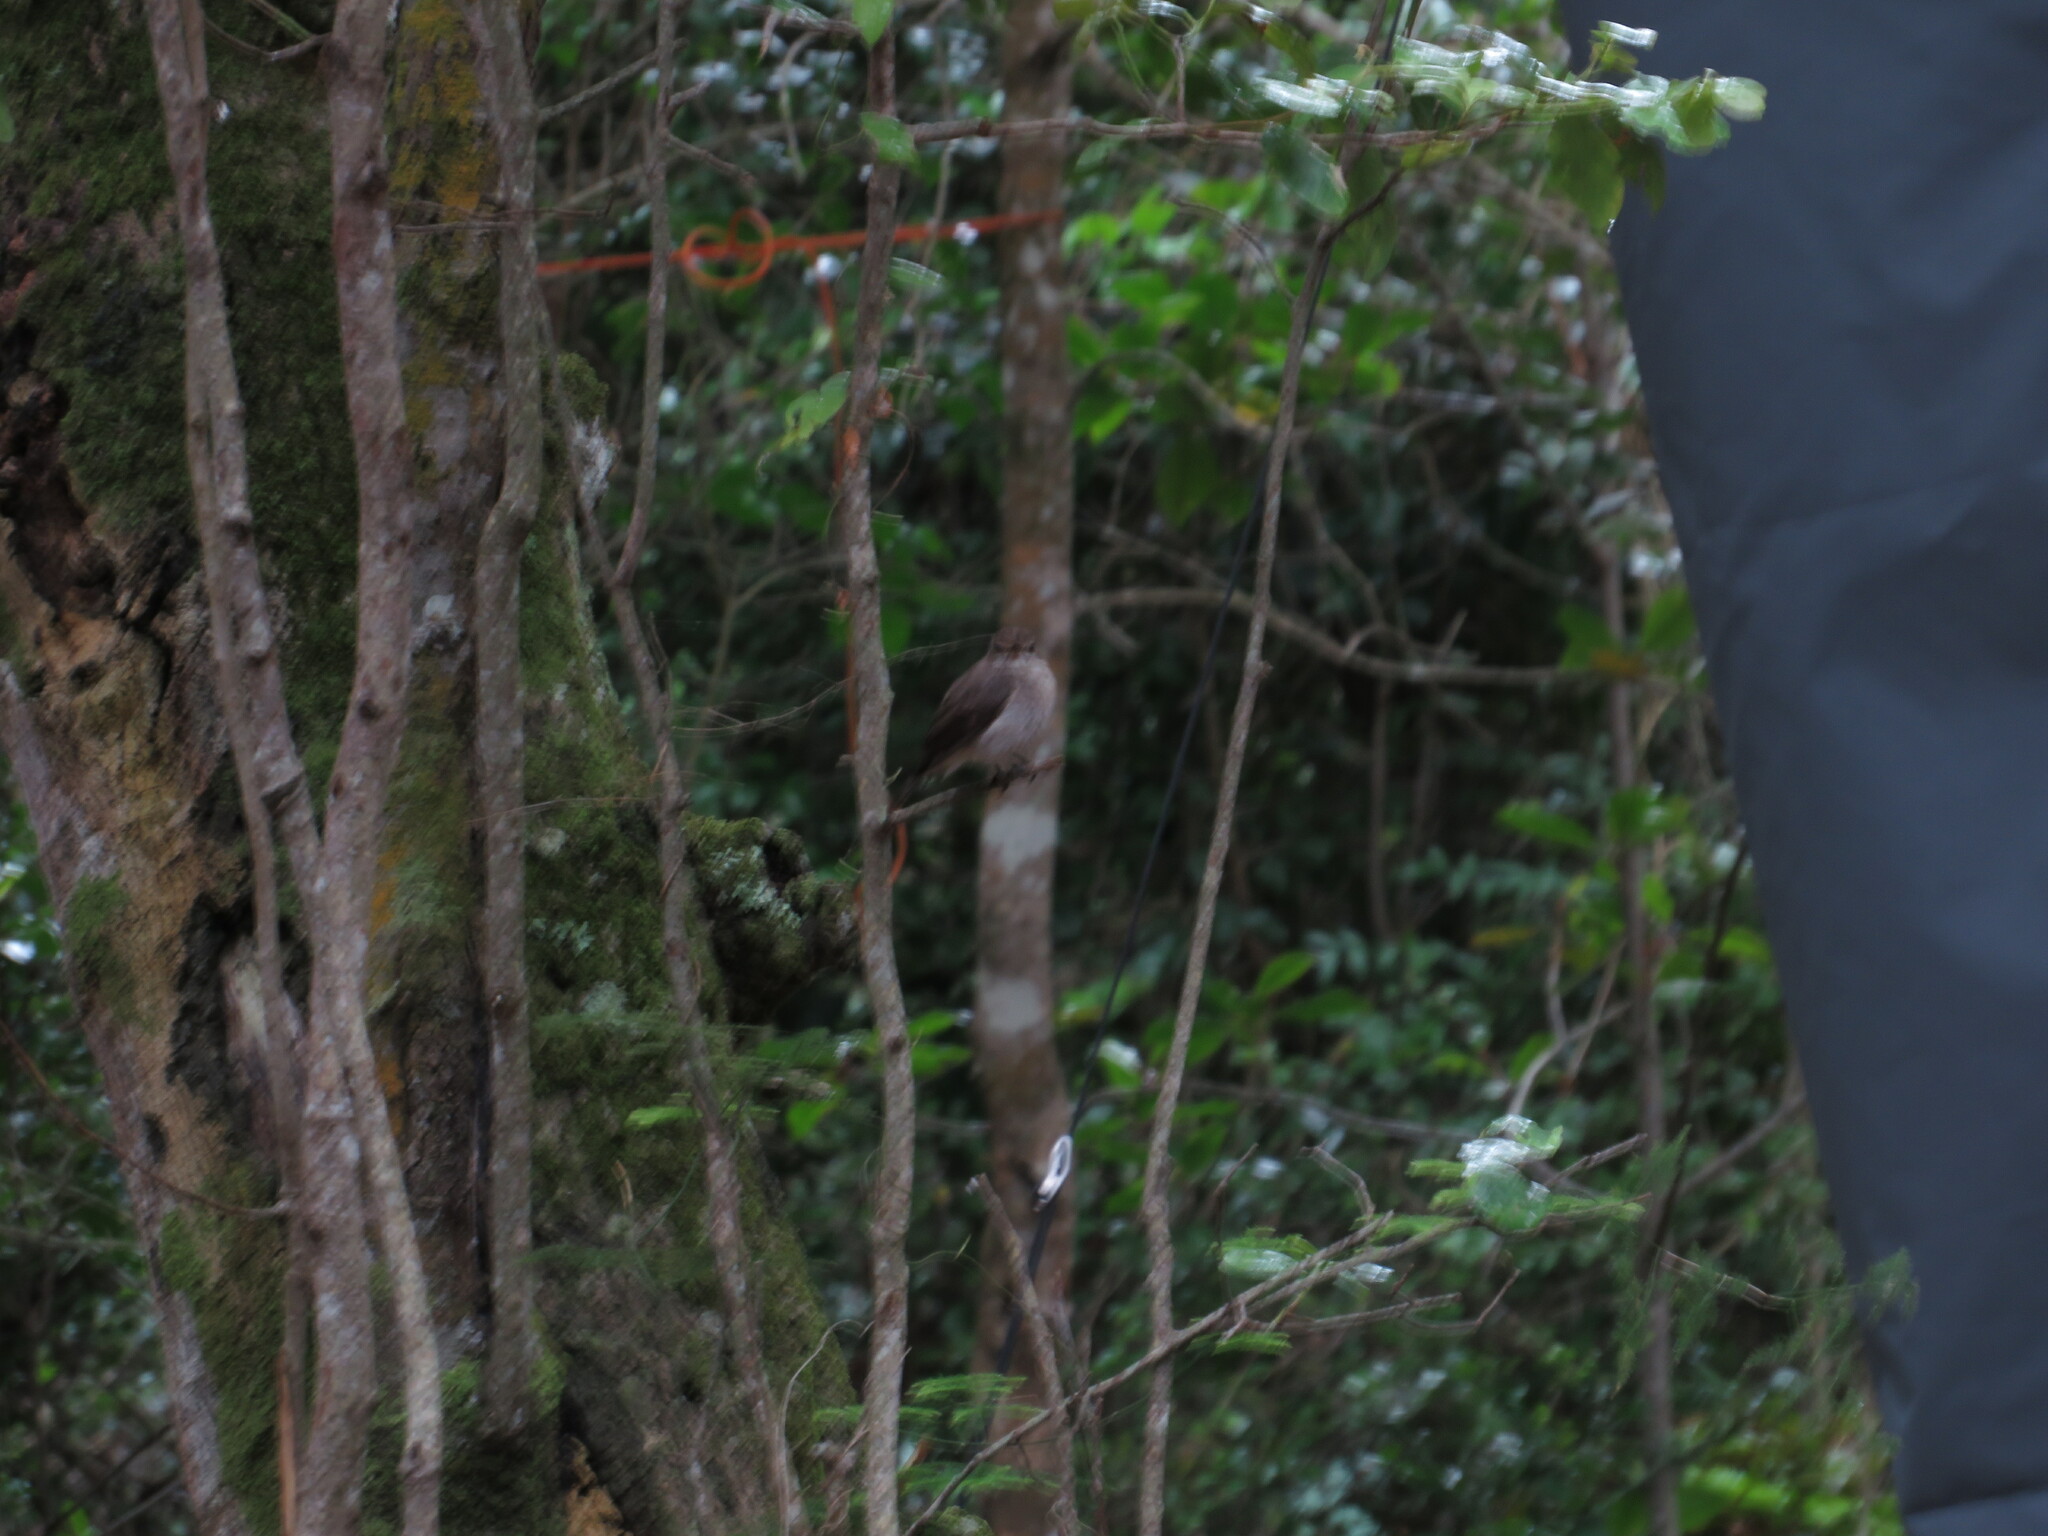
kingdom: Animalia
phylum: Chordata
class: Aves
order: Passeriformes
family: Muscicapidae
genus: Muscicapa
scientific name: Muscicapa adusta
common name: African dusky flycatcher
